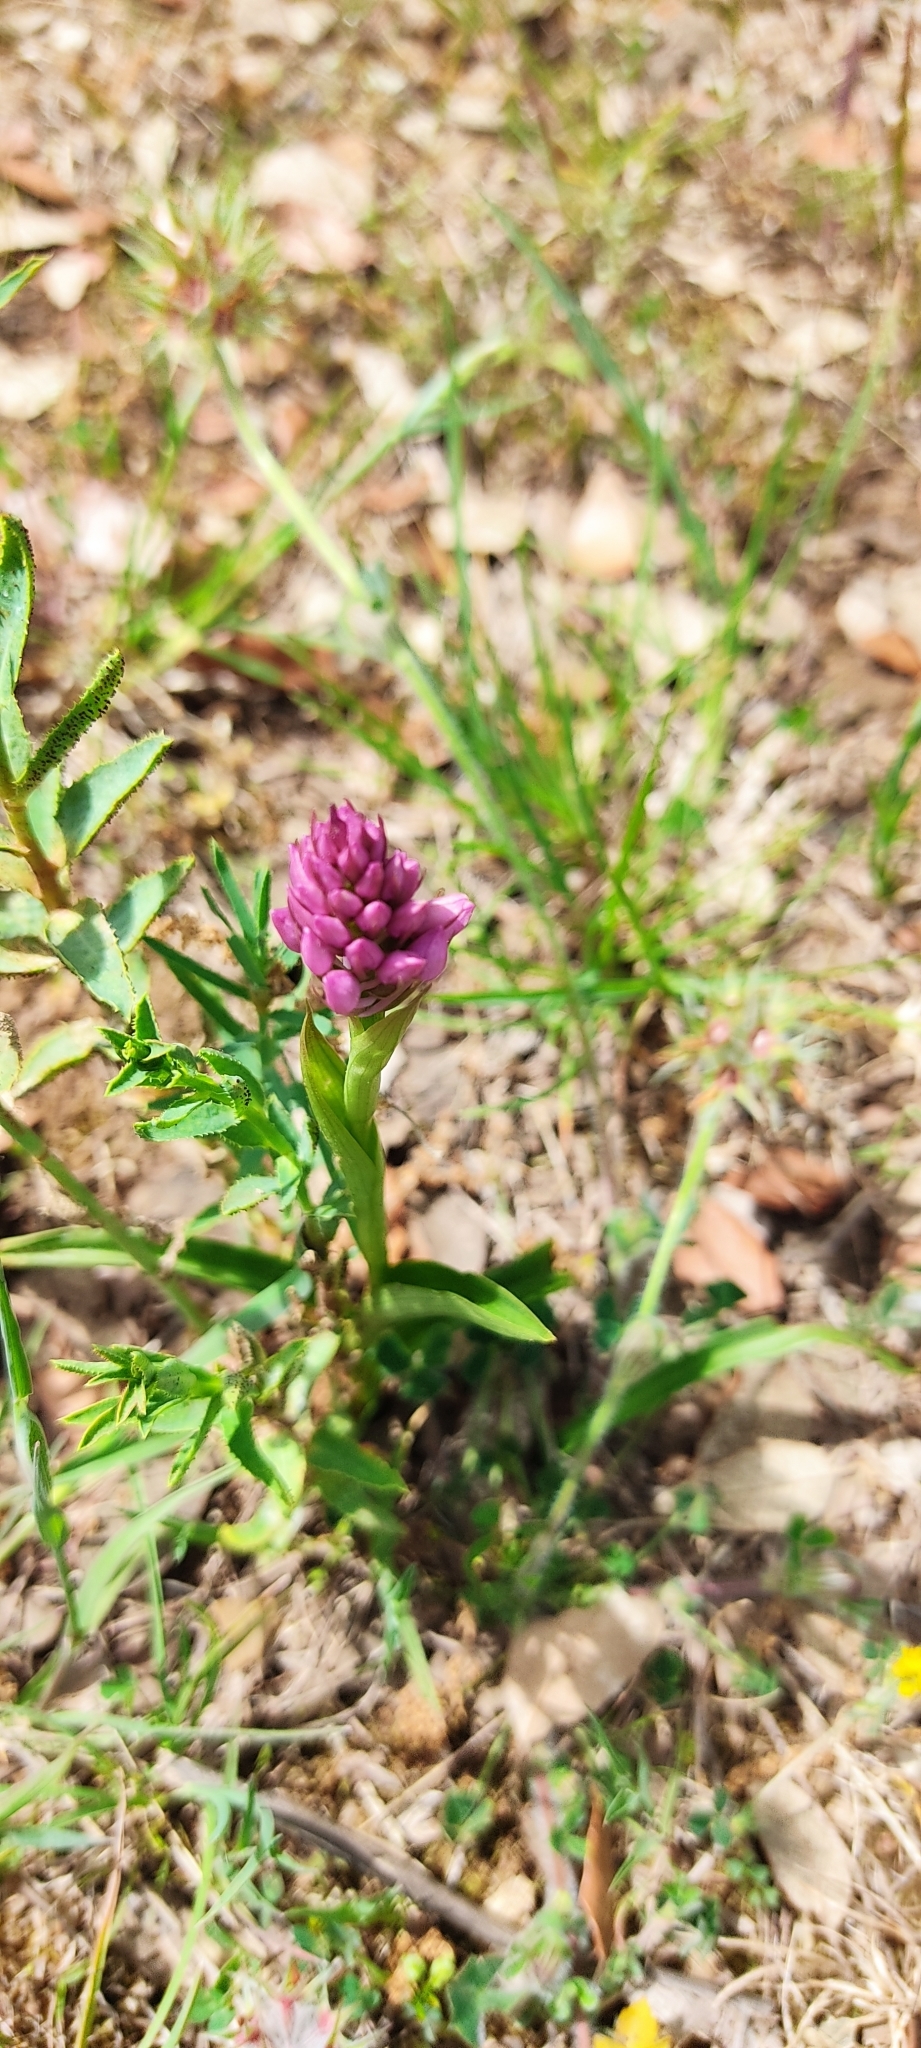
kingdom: Plantae
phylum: Tracheophyta
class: Liliopsida
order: Asparagales
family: Orchidaceae
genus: Anacamptis
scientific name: Anacamptis pyramidalis
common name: Pyramidal orchid
